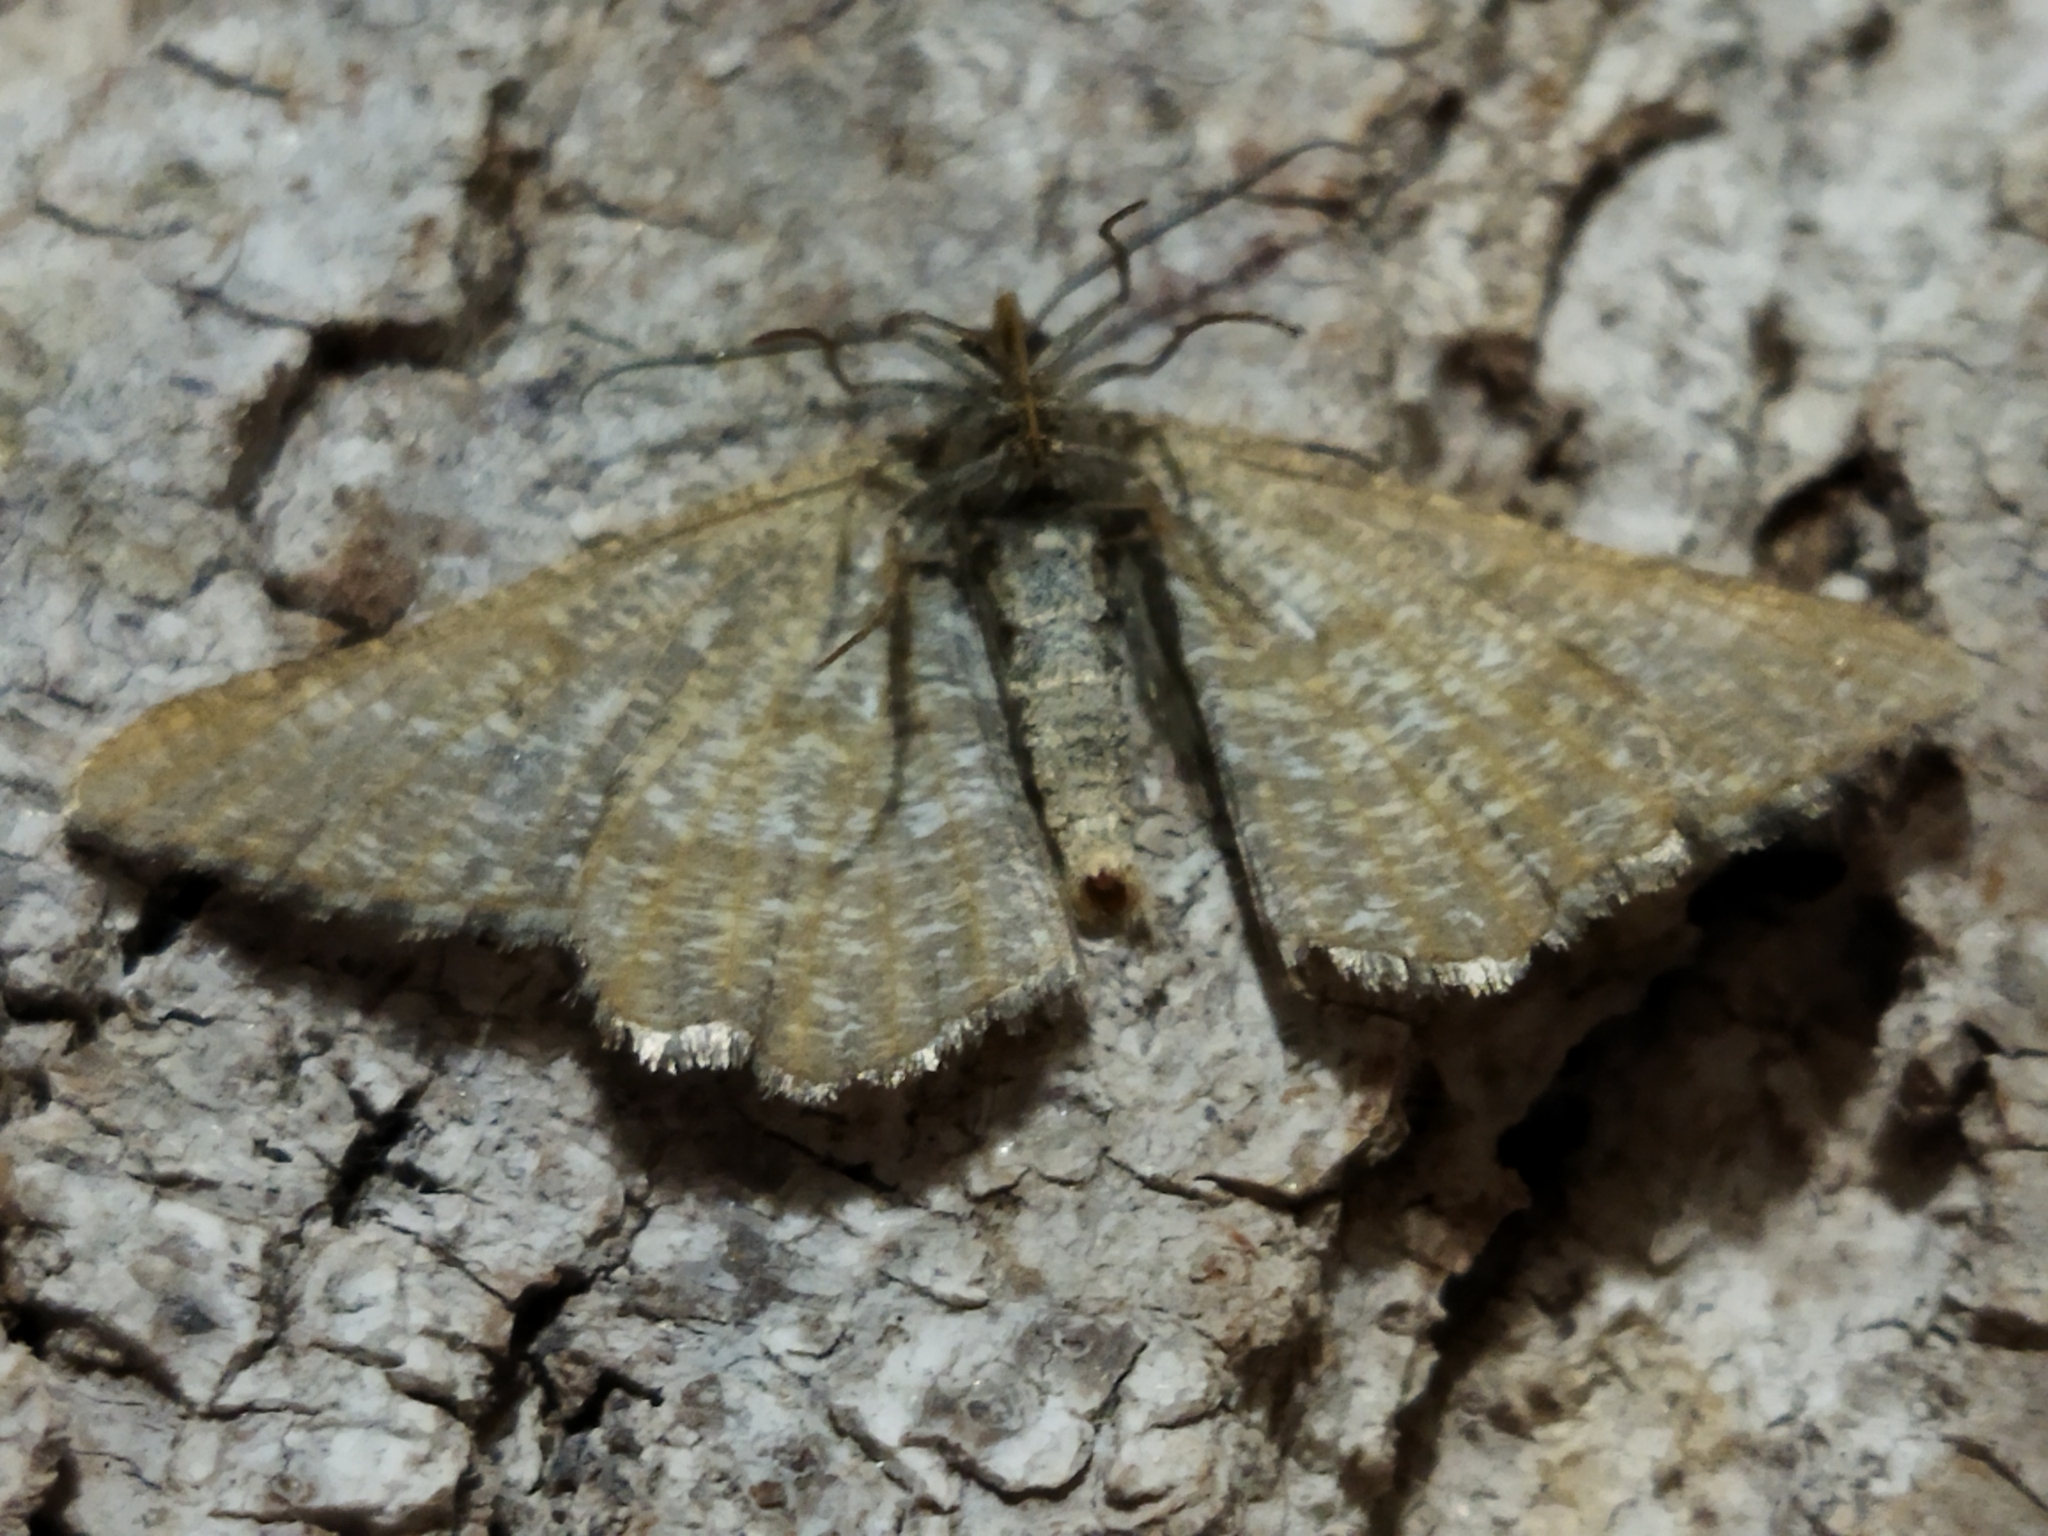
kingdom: Animalia
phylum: Arthropoda
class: Insecta
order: Lepidoptera
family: Geometridae
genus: Tephrina
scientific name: Tephrina murinaria
